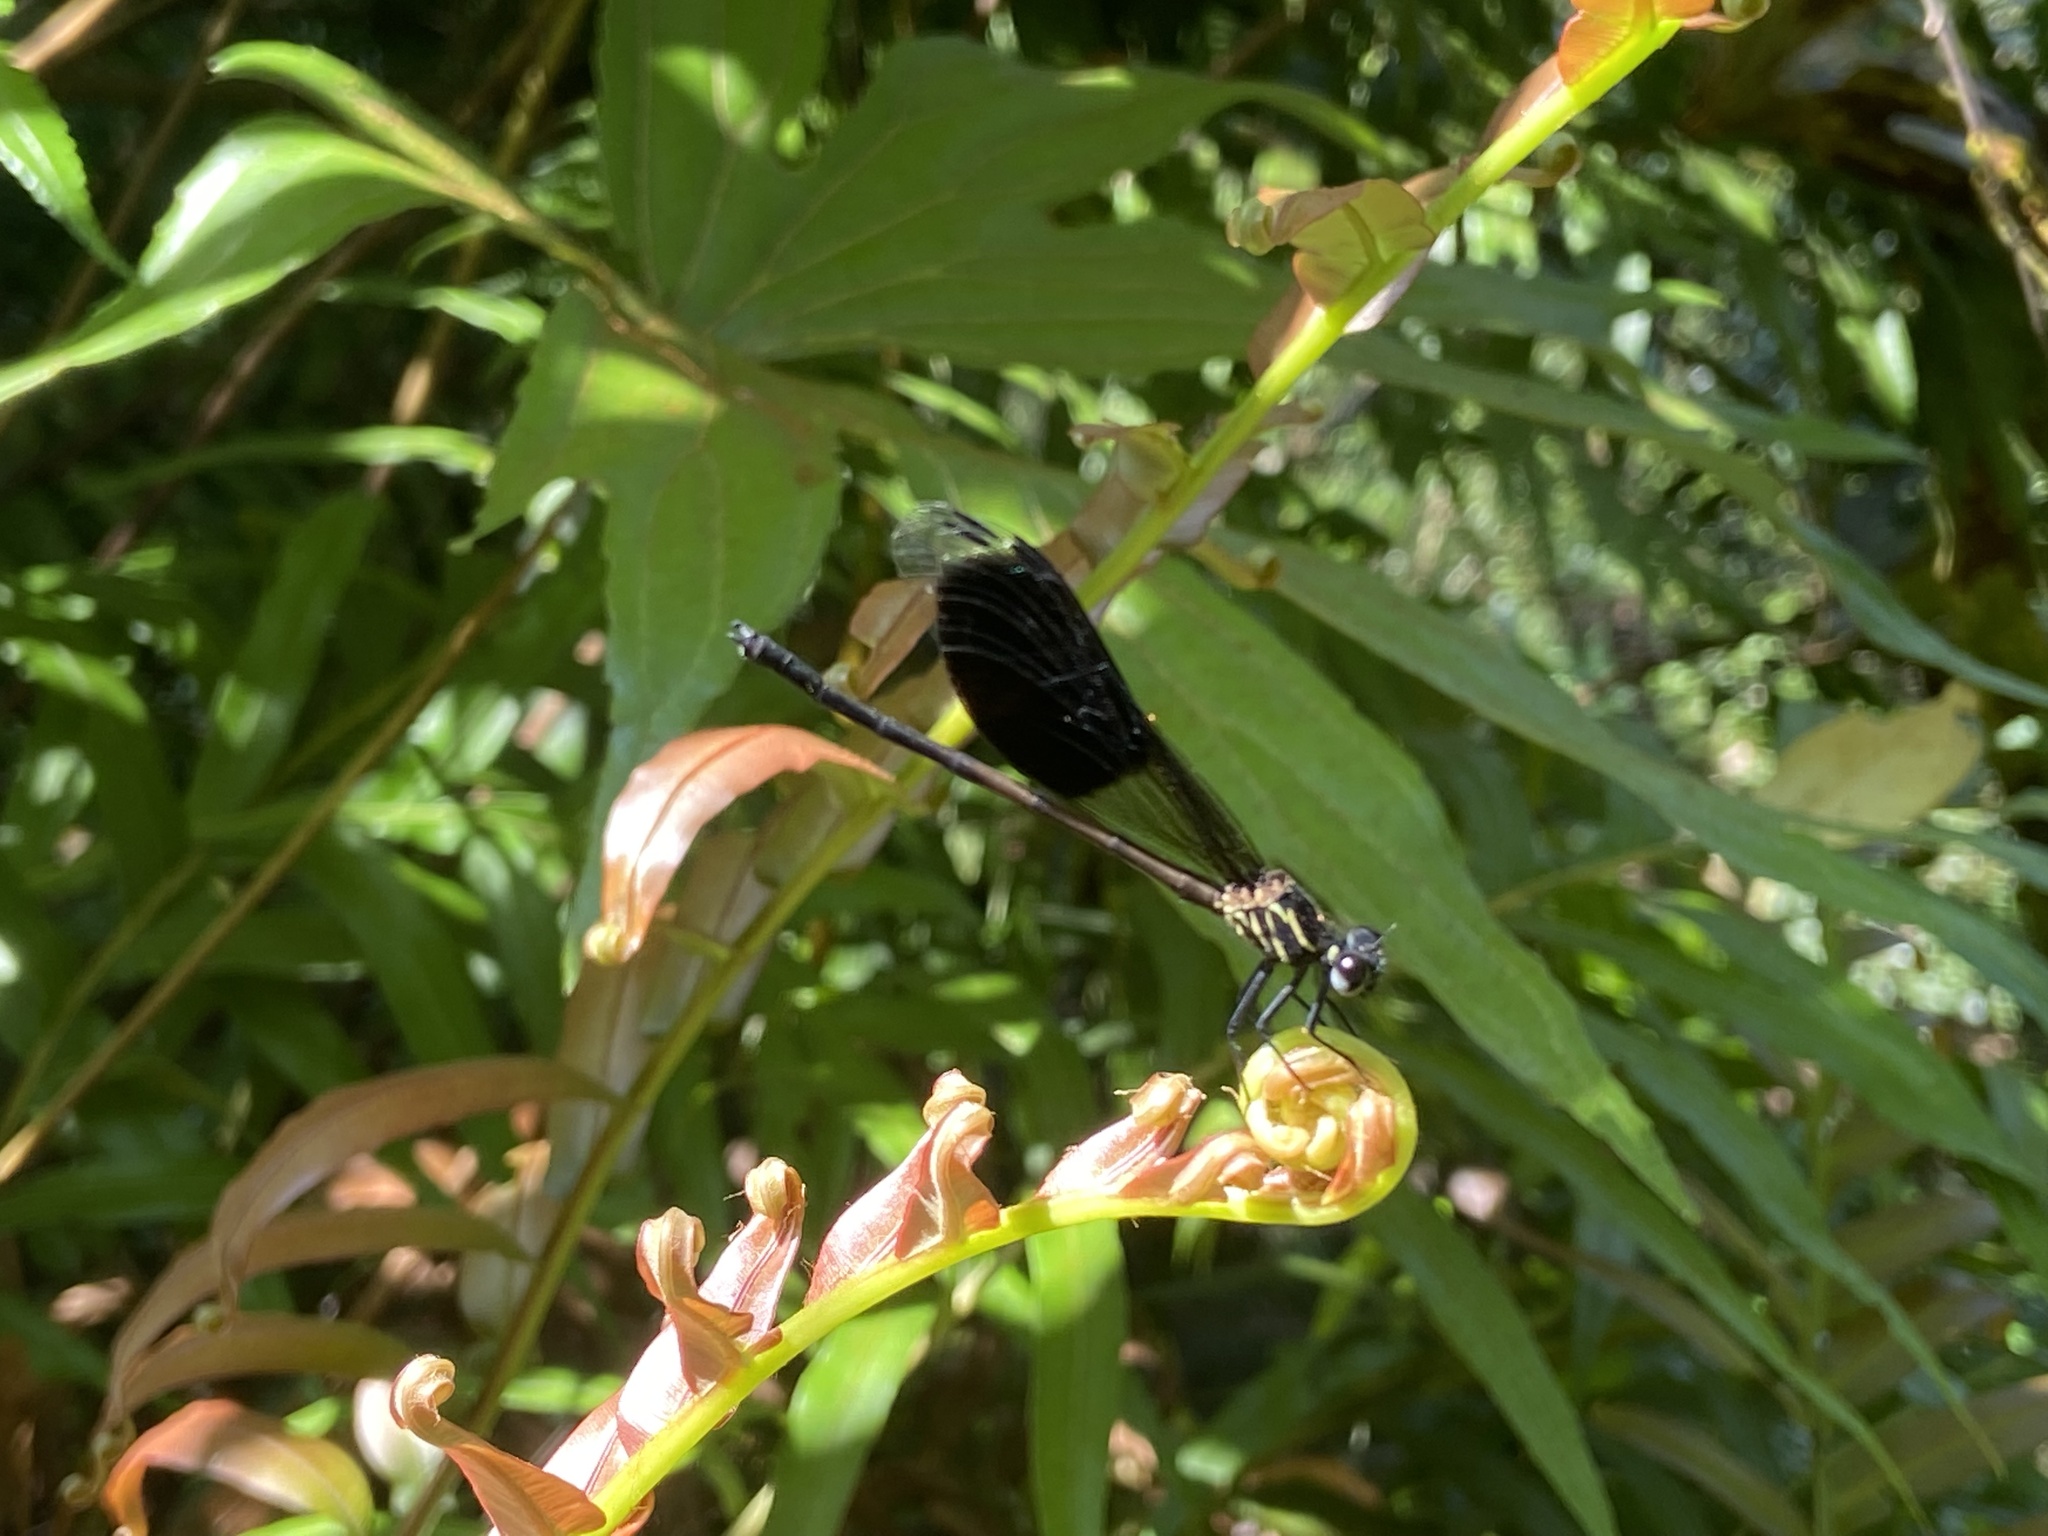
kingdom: Animalia
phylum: Arthropoda
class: Insecta
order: Odonata
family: Euphaeidae
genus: Euphaea
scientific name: Euphaea formosa
